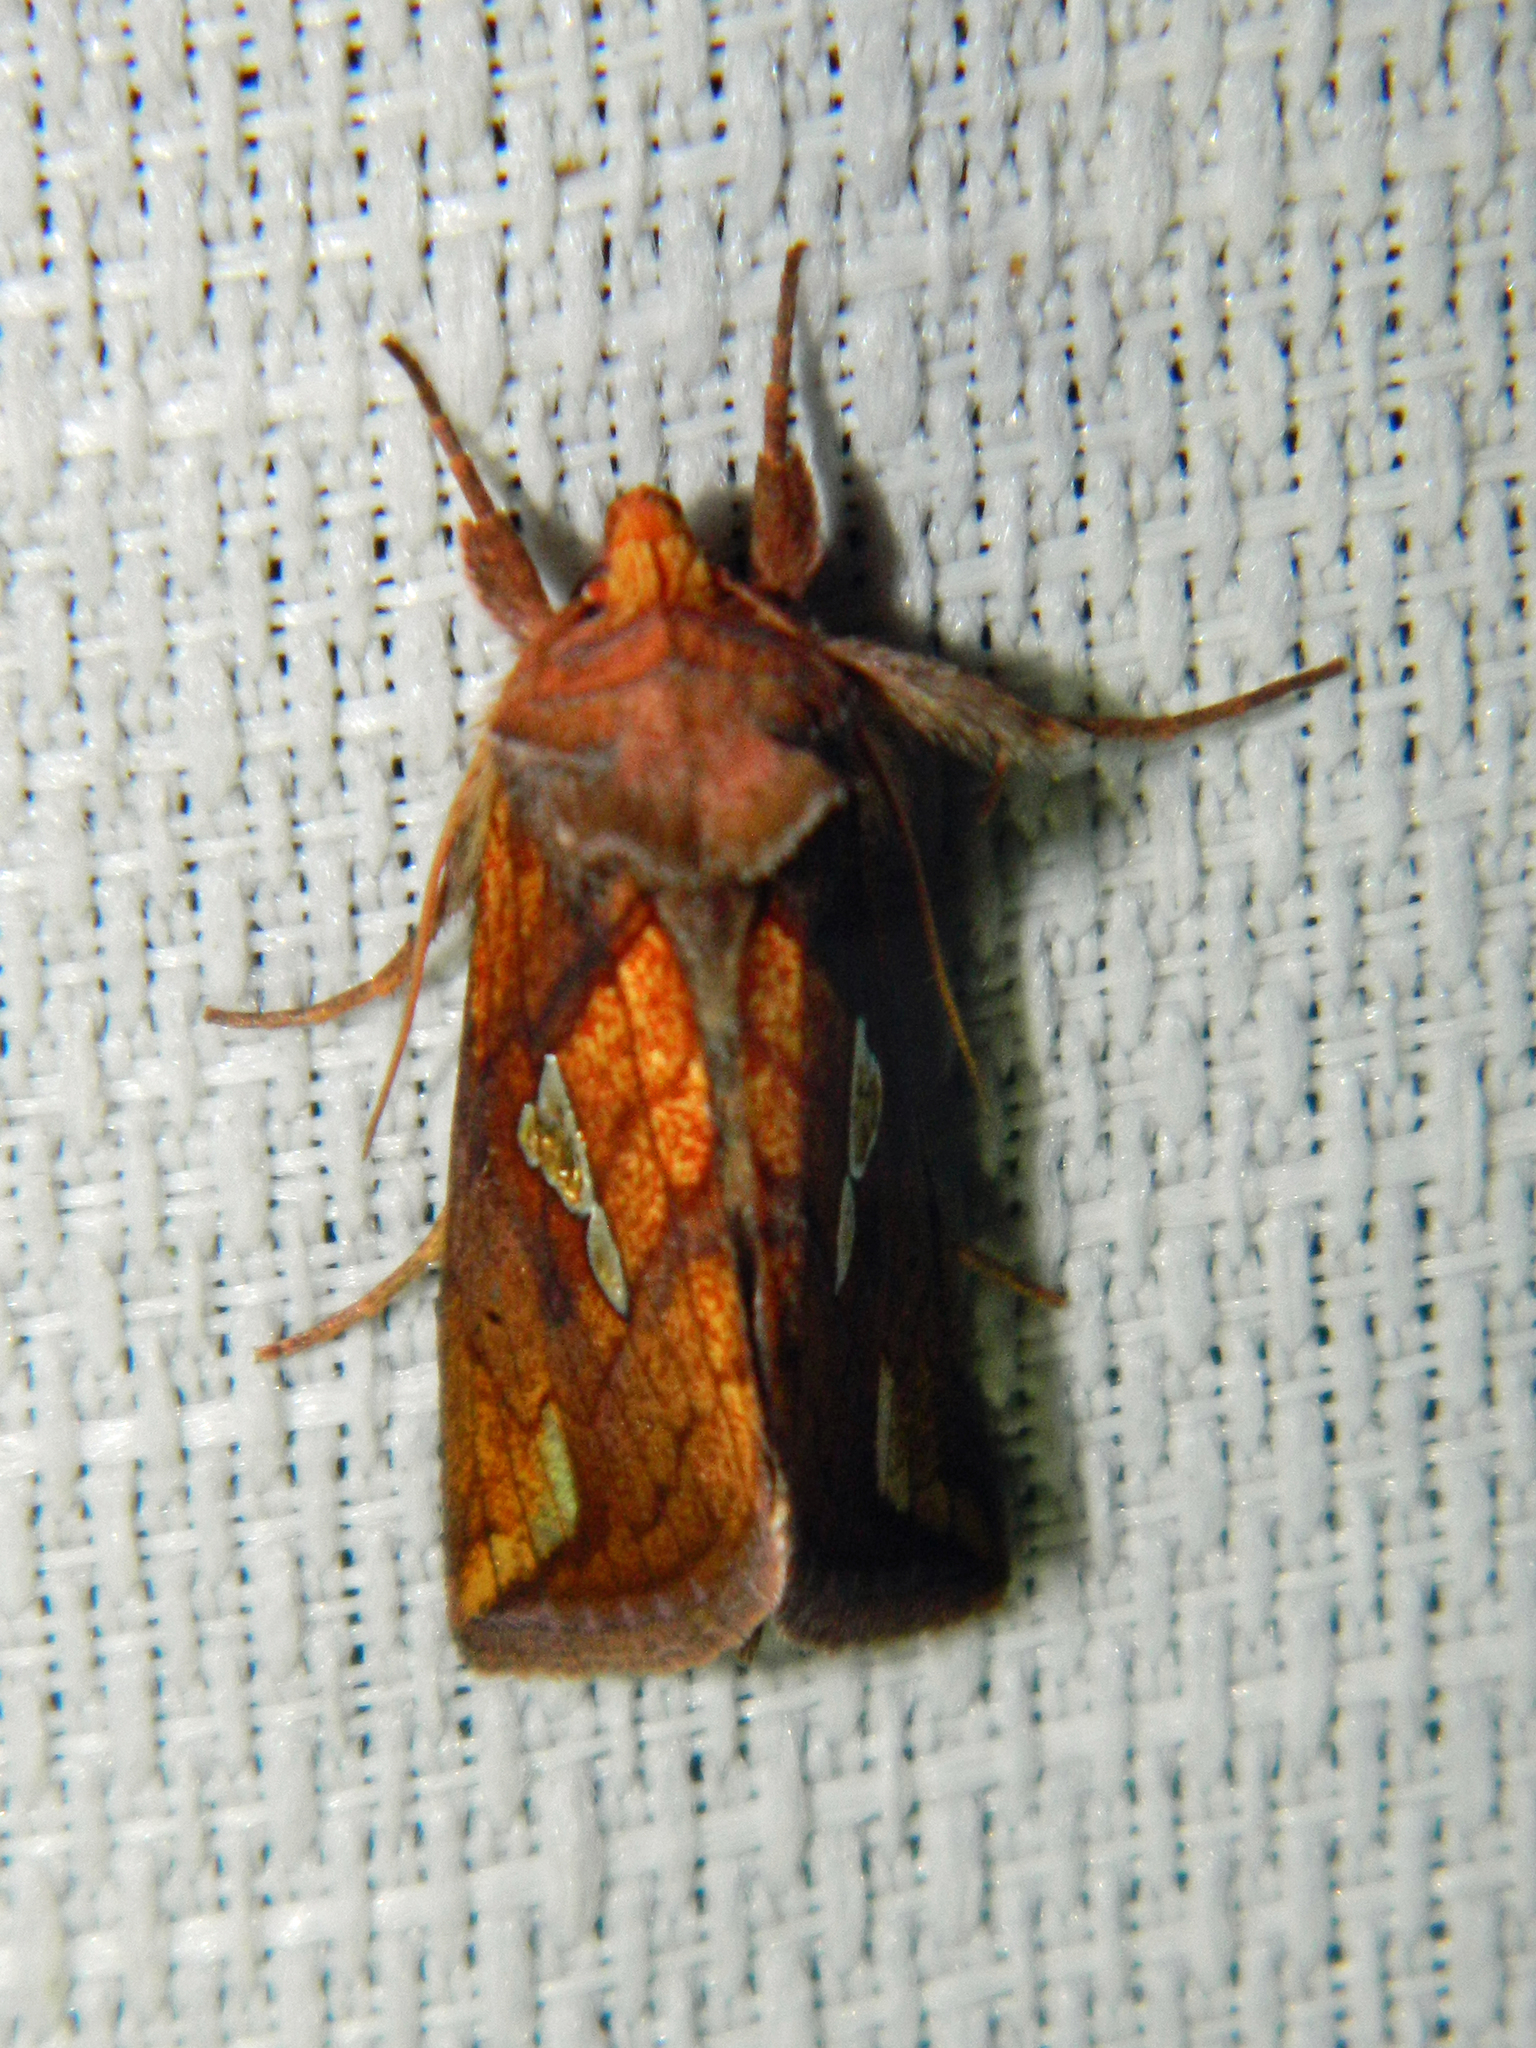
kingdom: Animalia
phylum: Arthropoda
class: Insecta
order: Lepidoptera
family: Noctuidae
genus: Plusia
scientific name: Plusia putnami
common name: Lempke's gold spot
